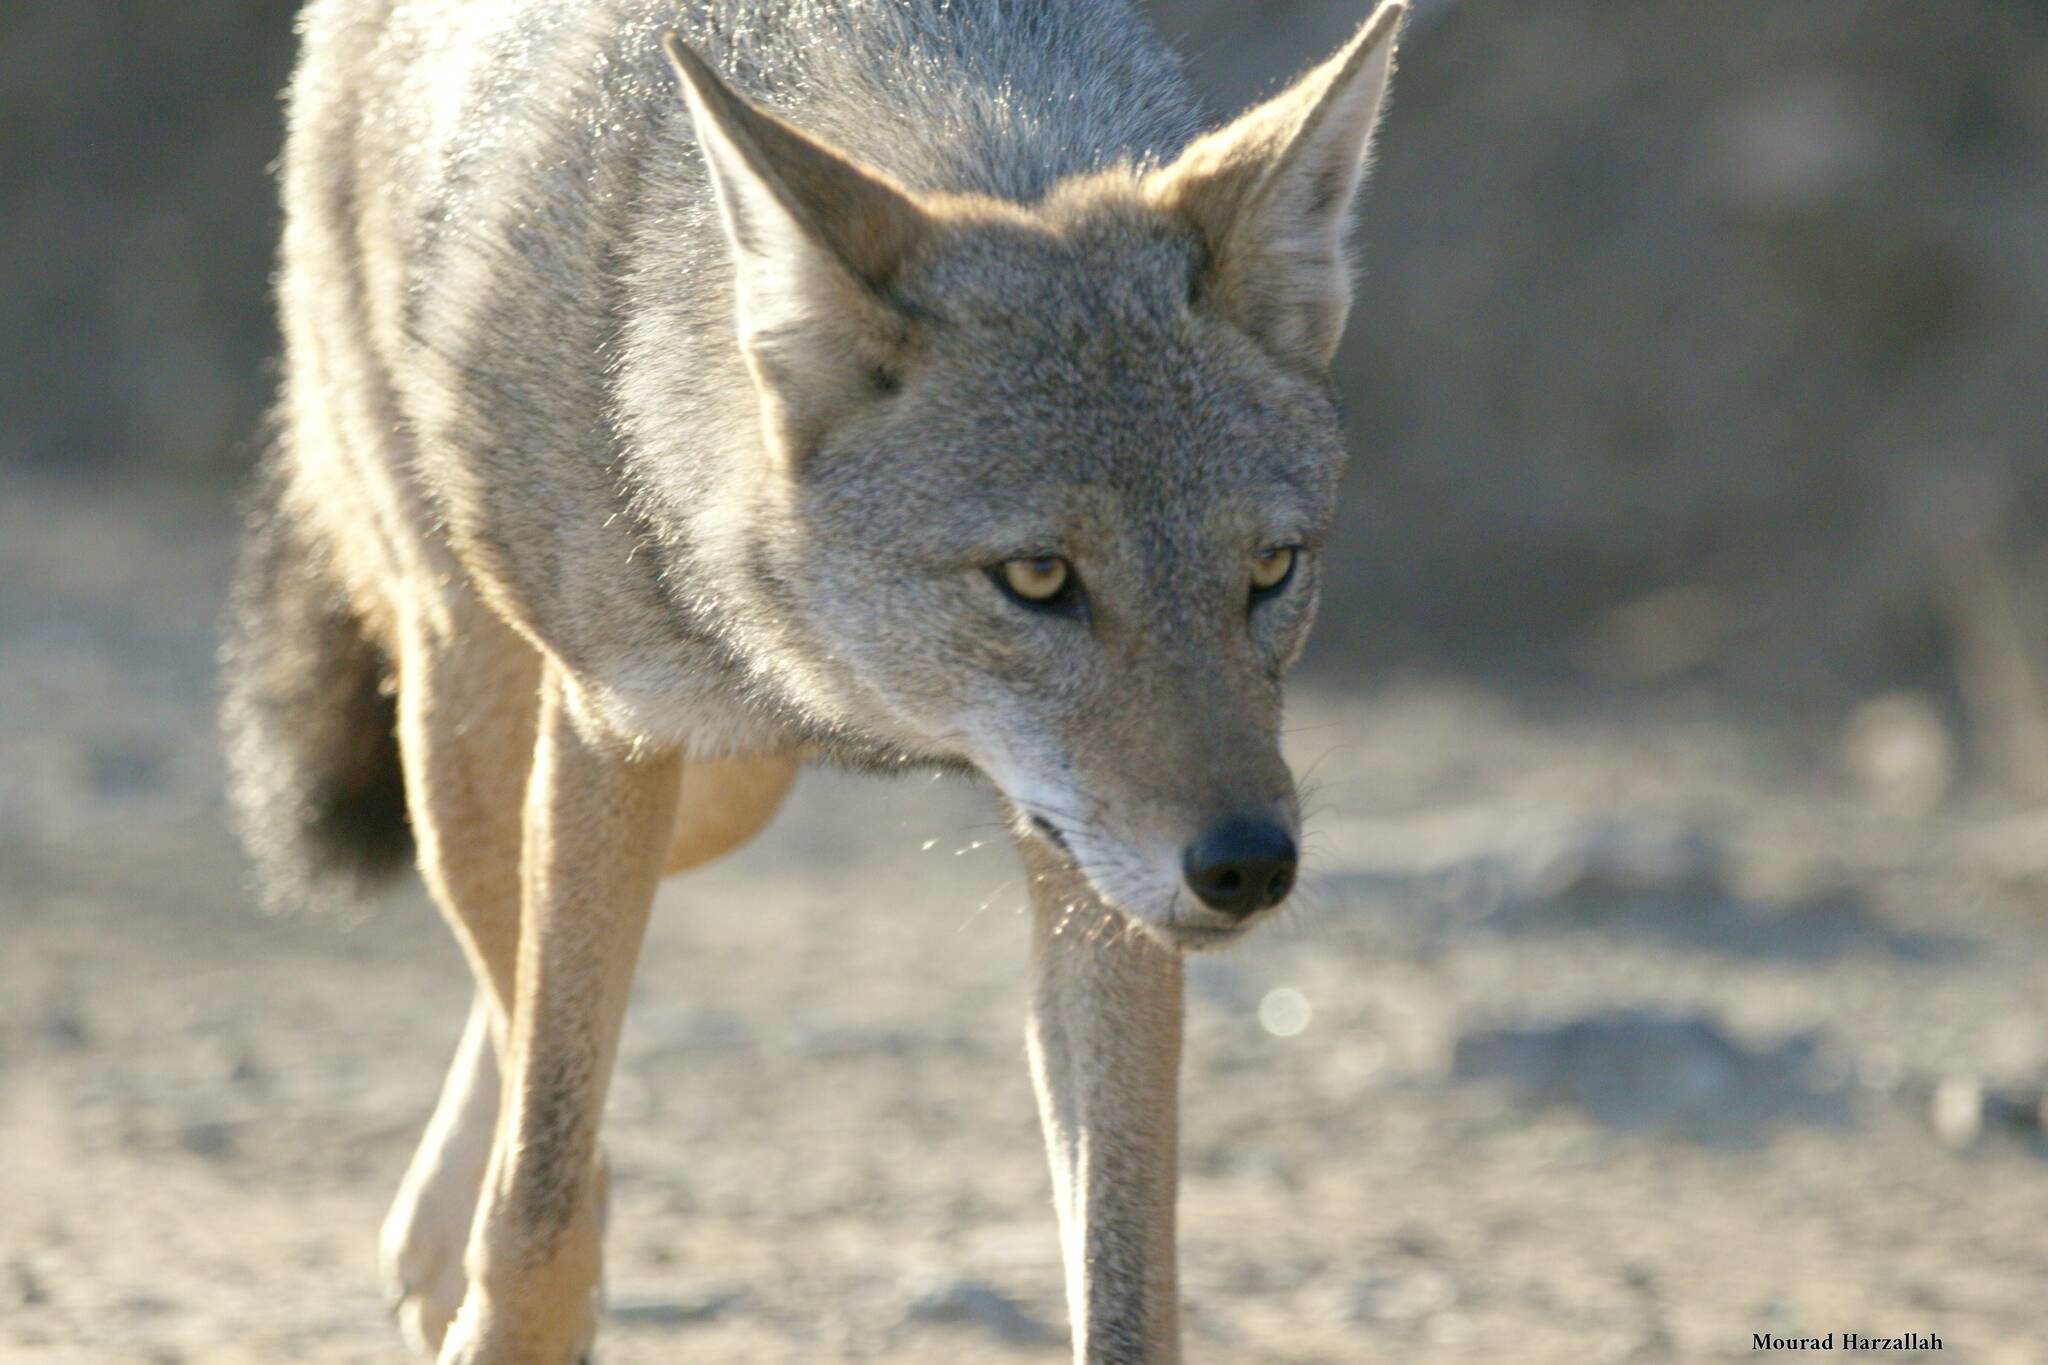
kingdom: Animalia
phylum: Chordata
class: Mammalia
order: Carnivora
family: Canidae
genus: Canis
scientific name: Canis lupaster
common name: African golden wolf
